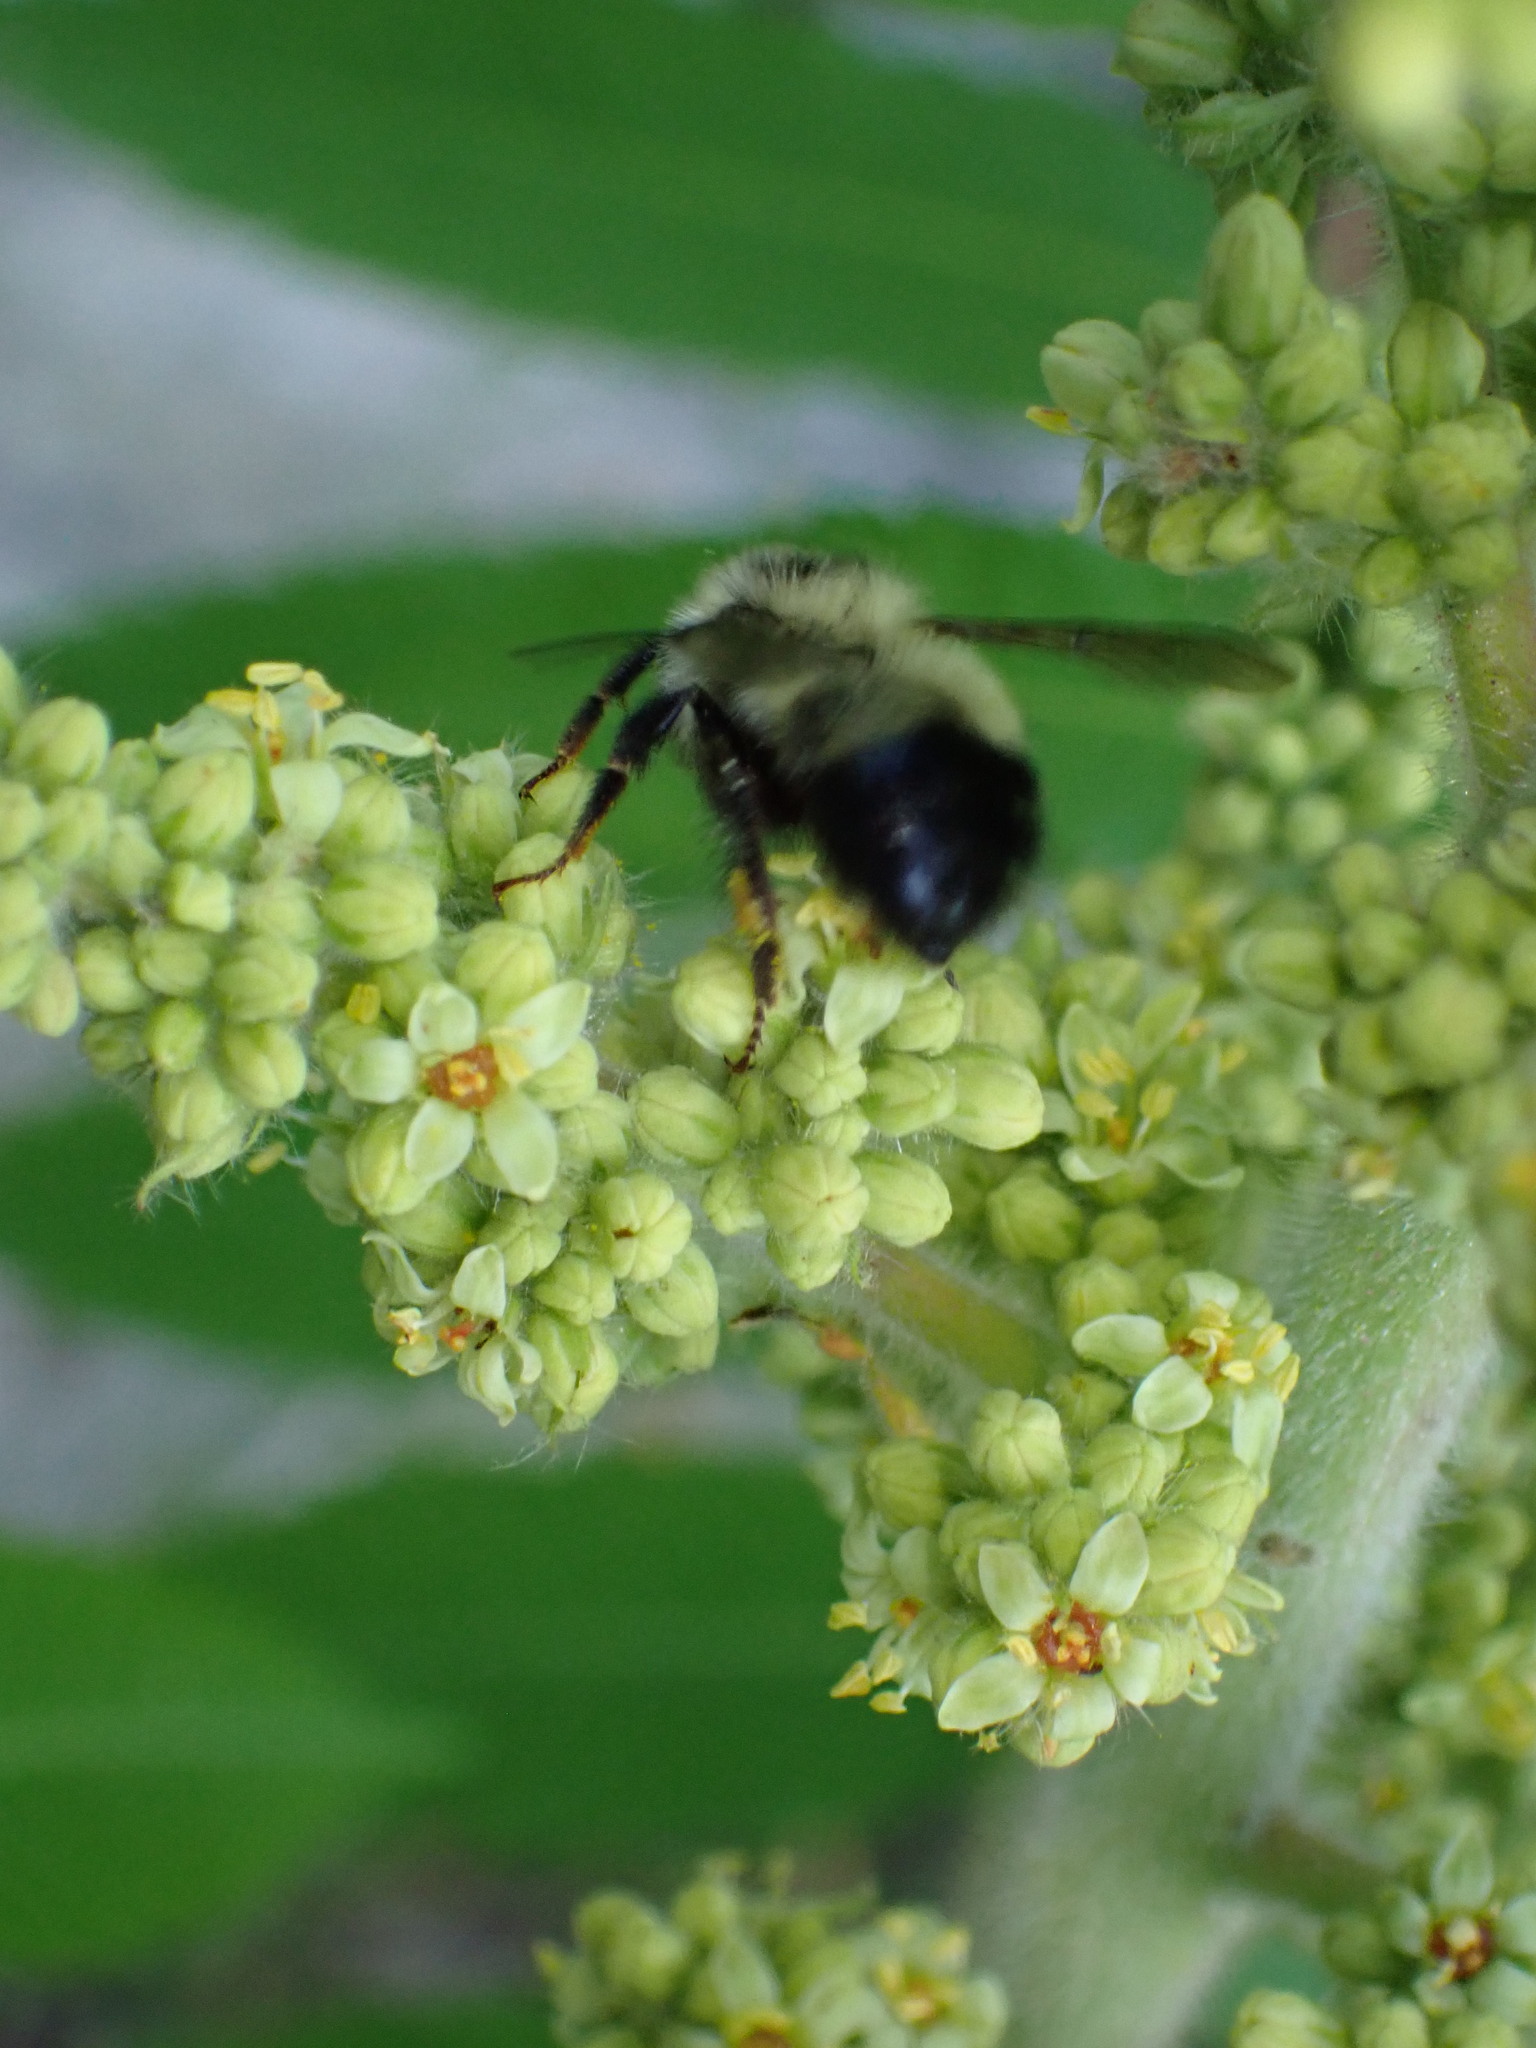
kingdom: Animalia
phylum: Arthropoda
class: Insecta
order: Hymenoptera
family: Apidae
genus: Pyrobombus
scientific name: Pyrobombus
